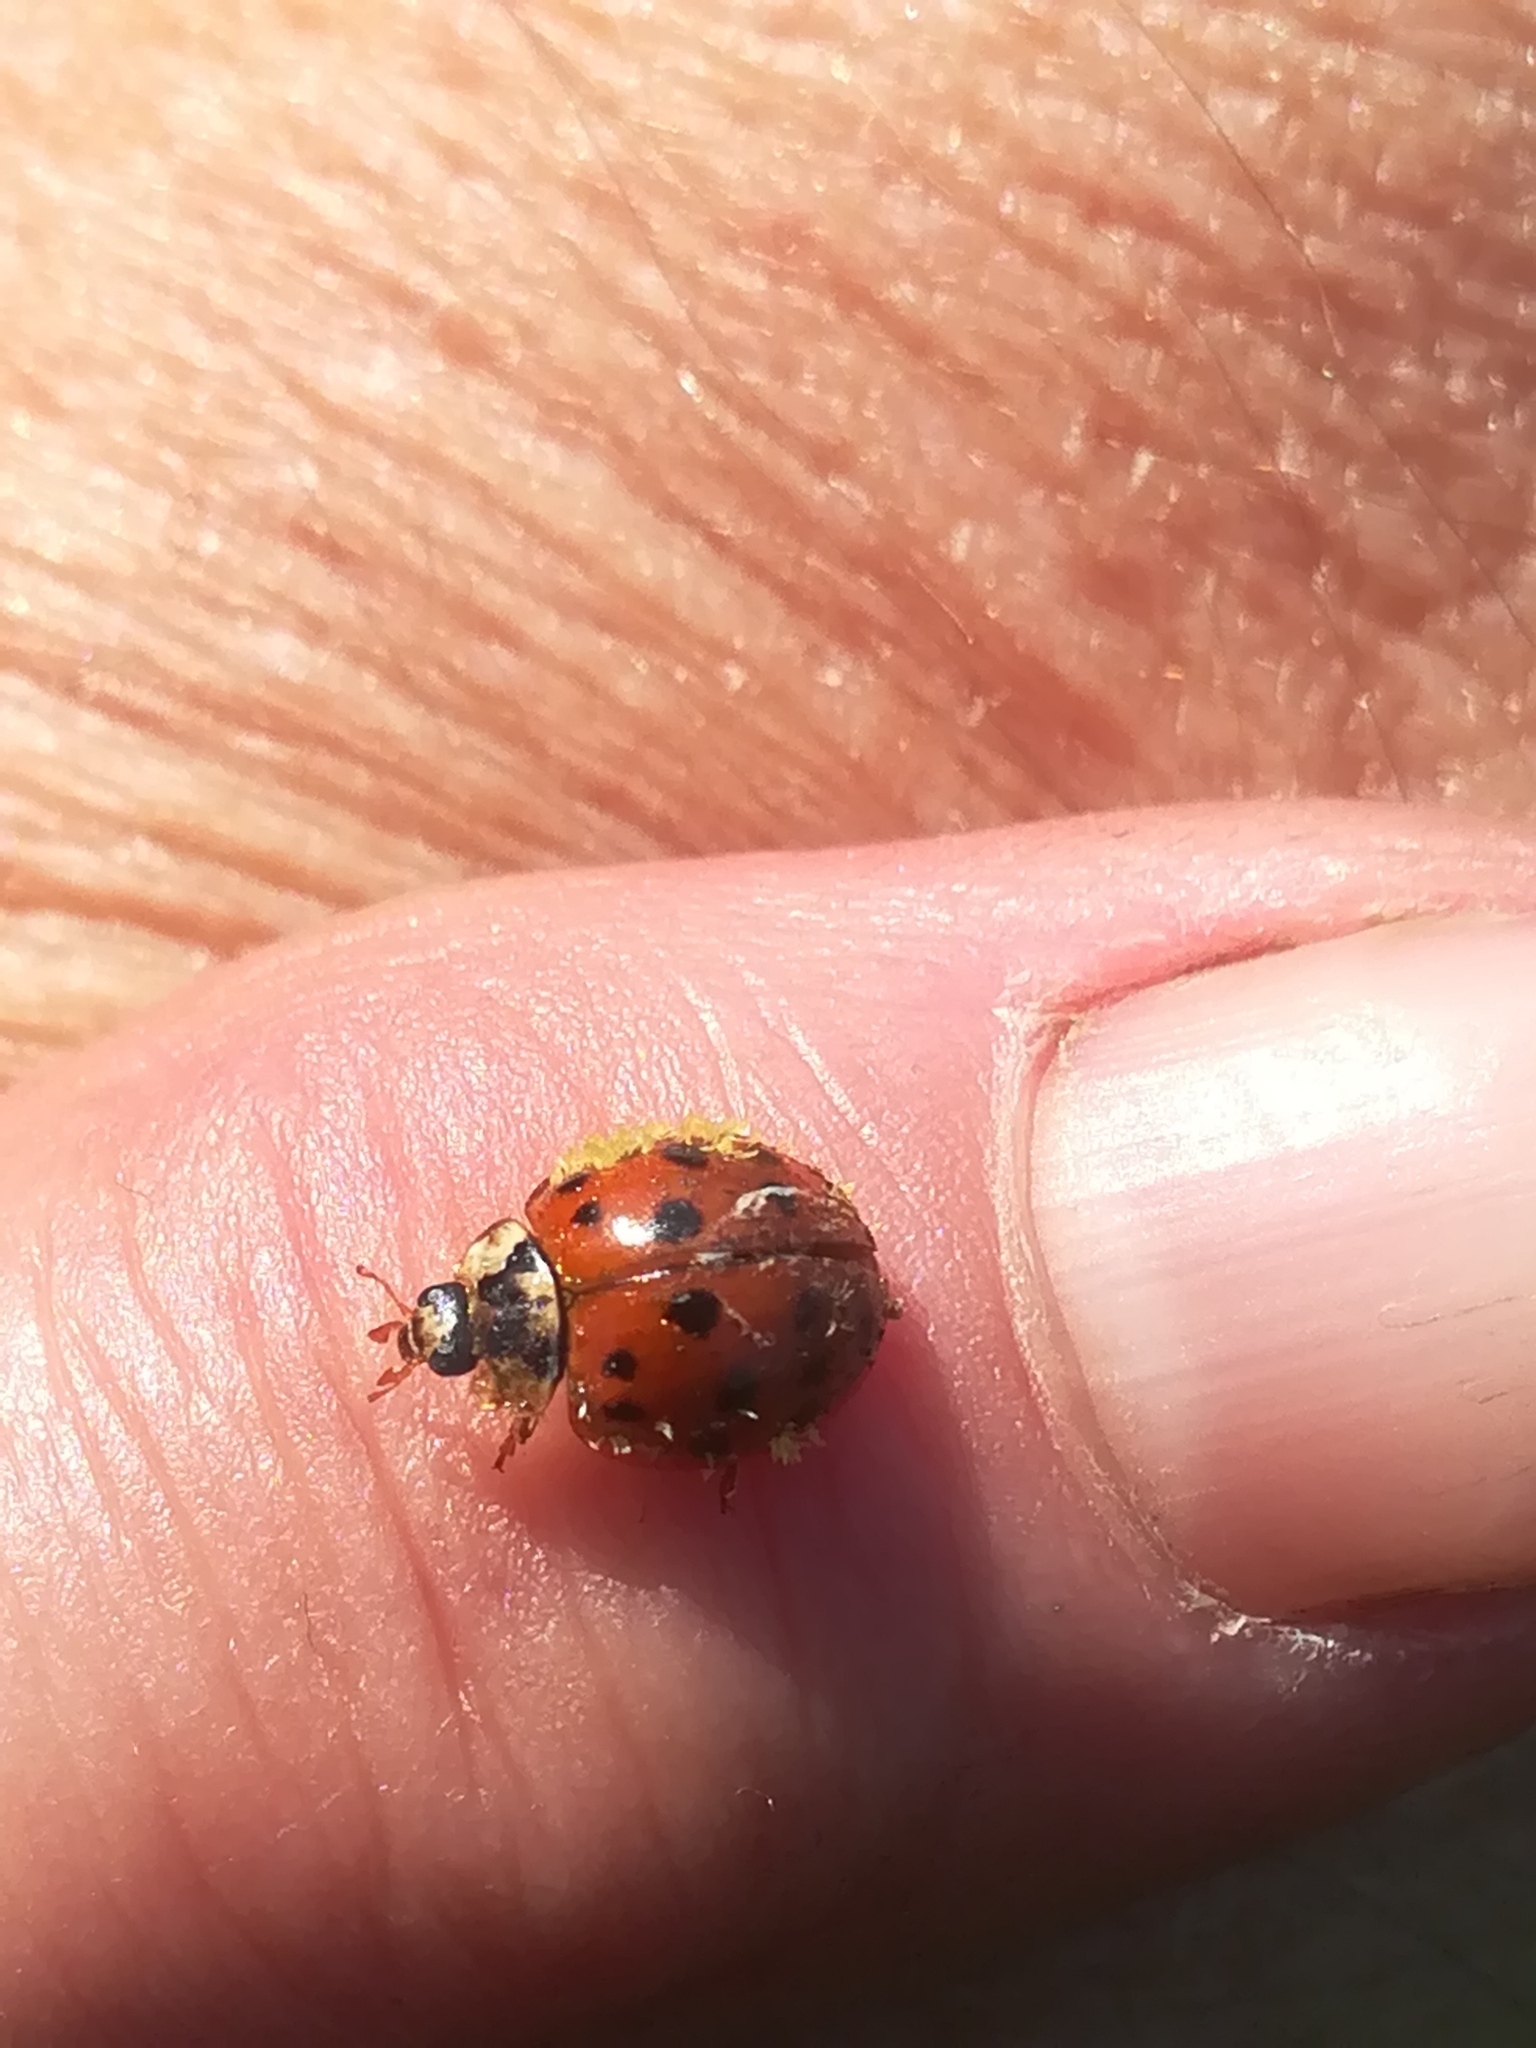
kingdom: Animalia
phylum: Arthropoda
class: Insecta
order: Coleoptera
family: Coccinellidae
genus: Harmonia
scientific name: Harmonia axyridis
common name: Harlequin ladybird
